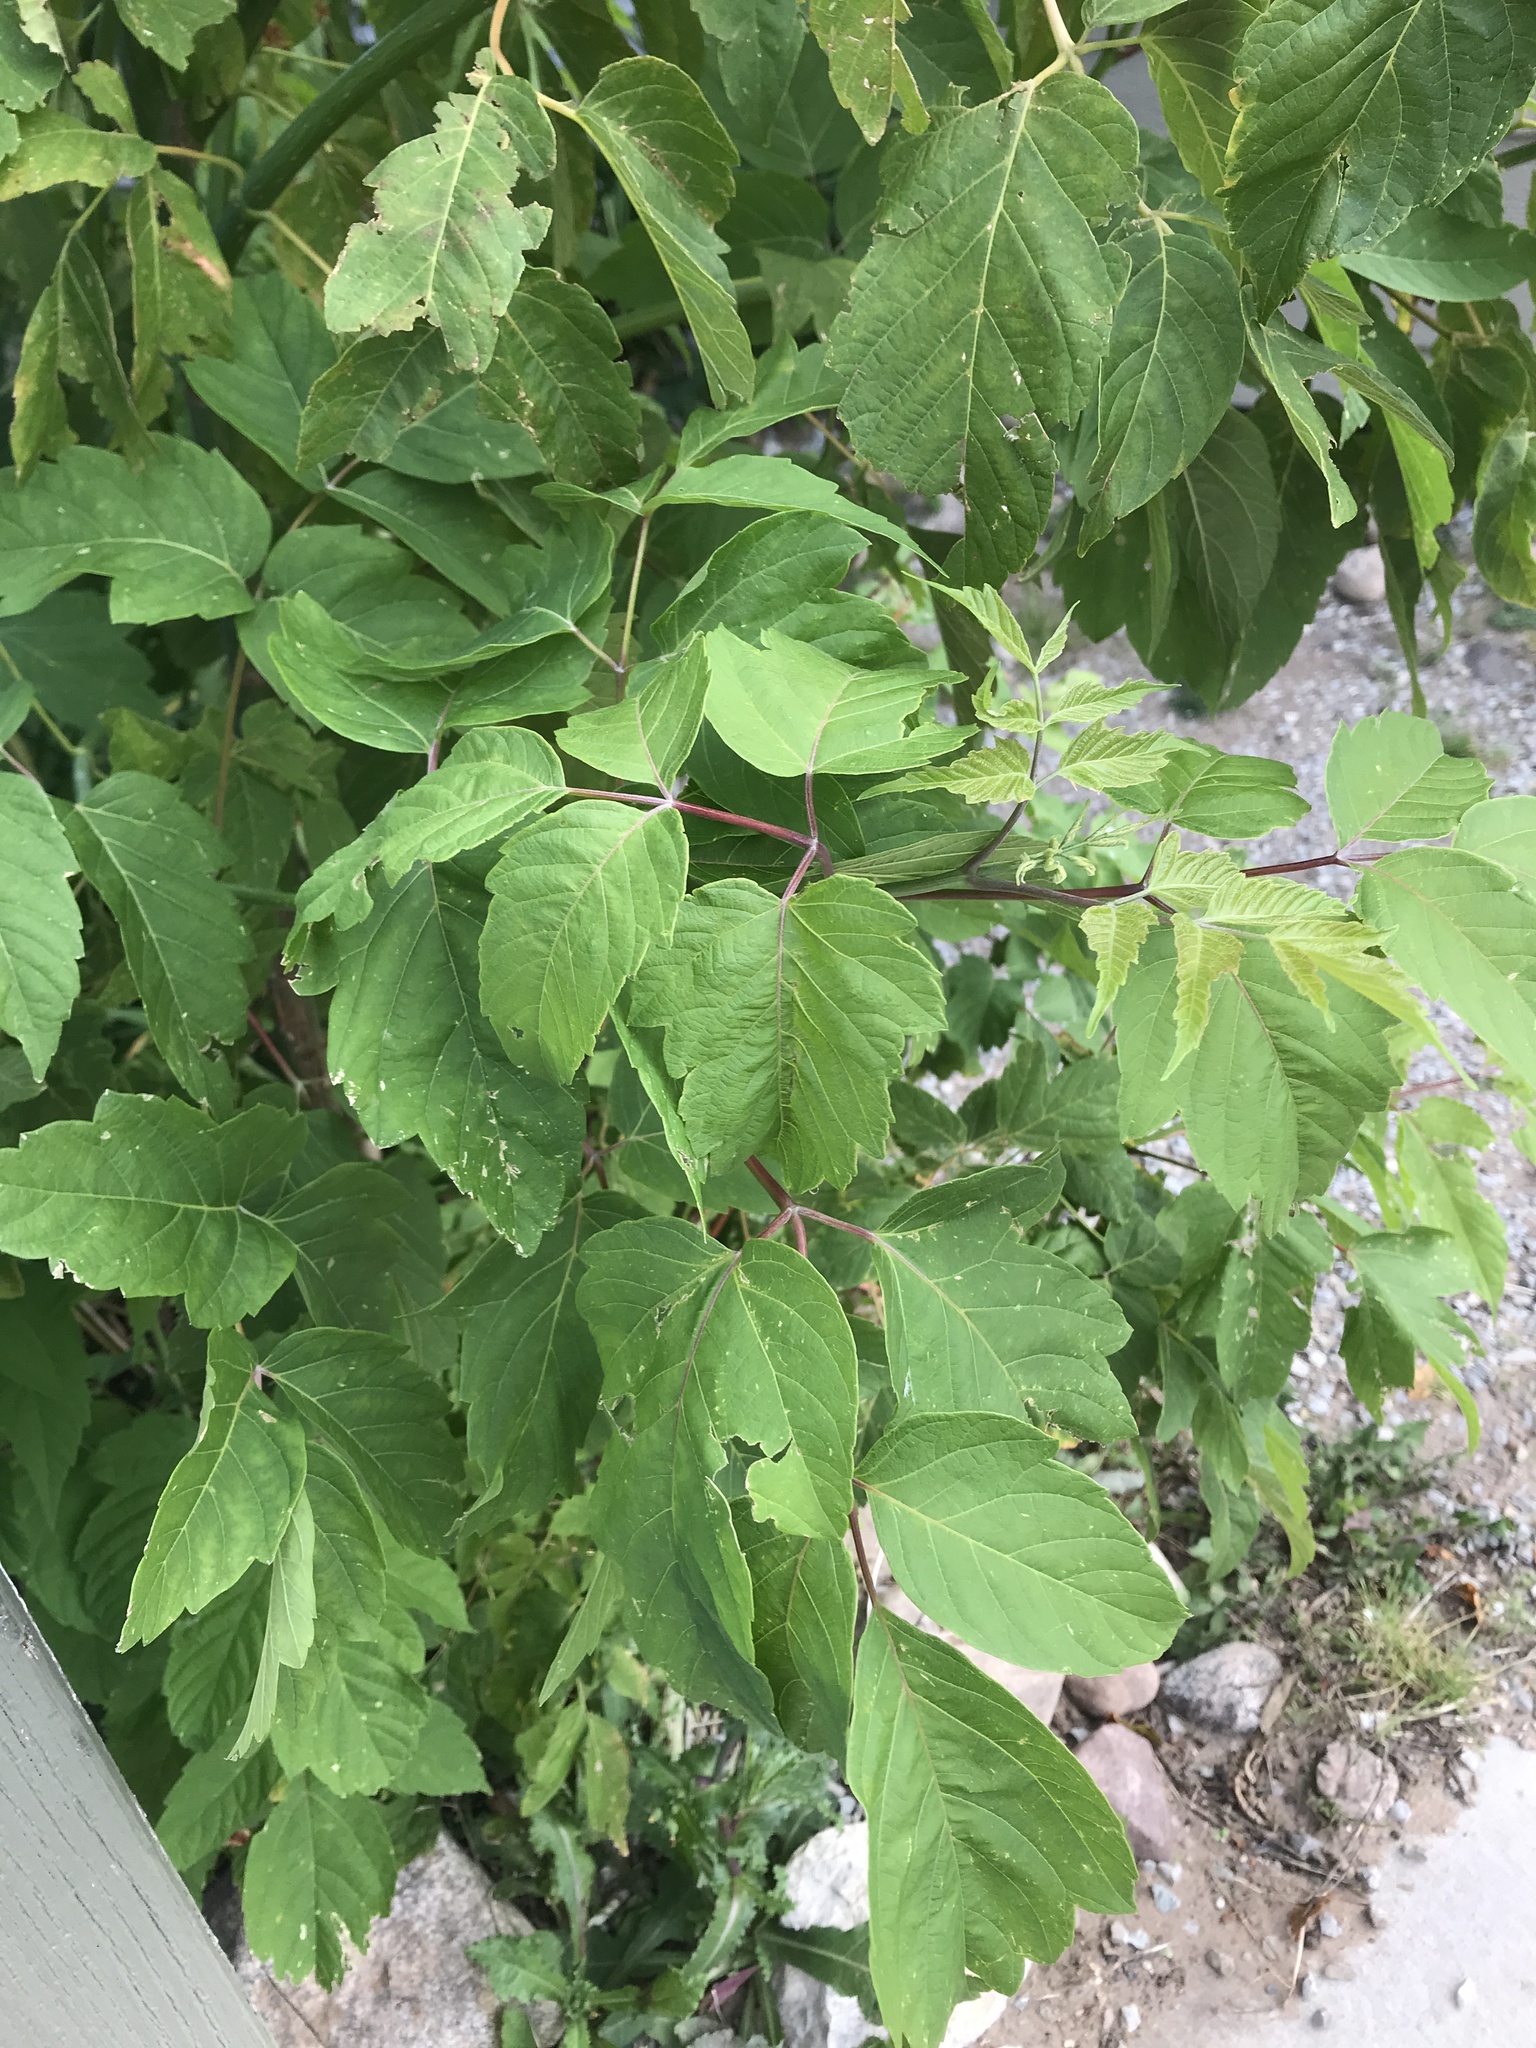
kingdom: Plantae
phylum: Tracheophyta
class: Magnoliopsida
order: Sapindales
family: Sapindaceae
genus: Acer
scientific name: Acer negundo
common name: Ashleaf maple
